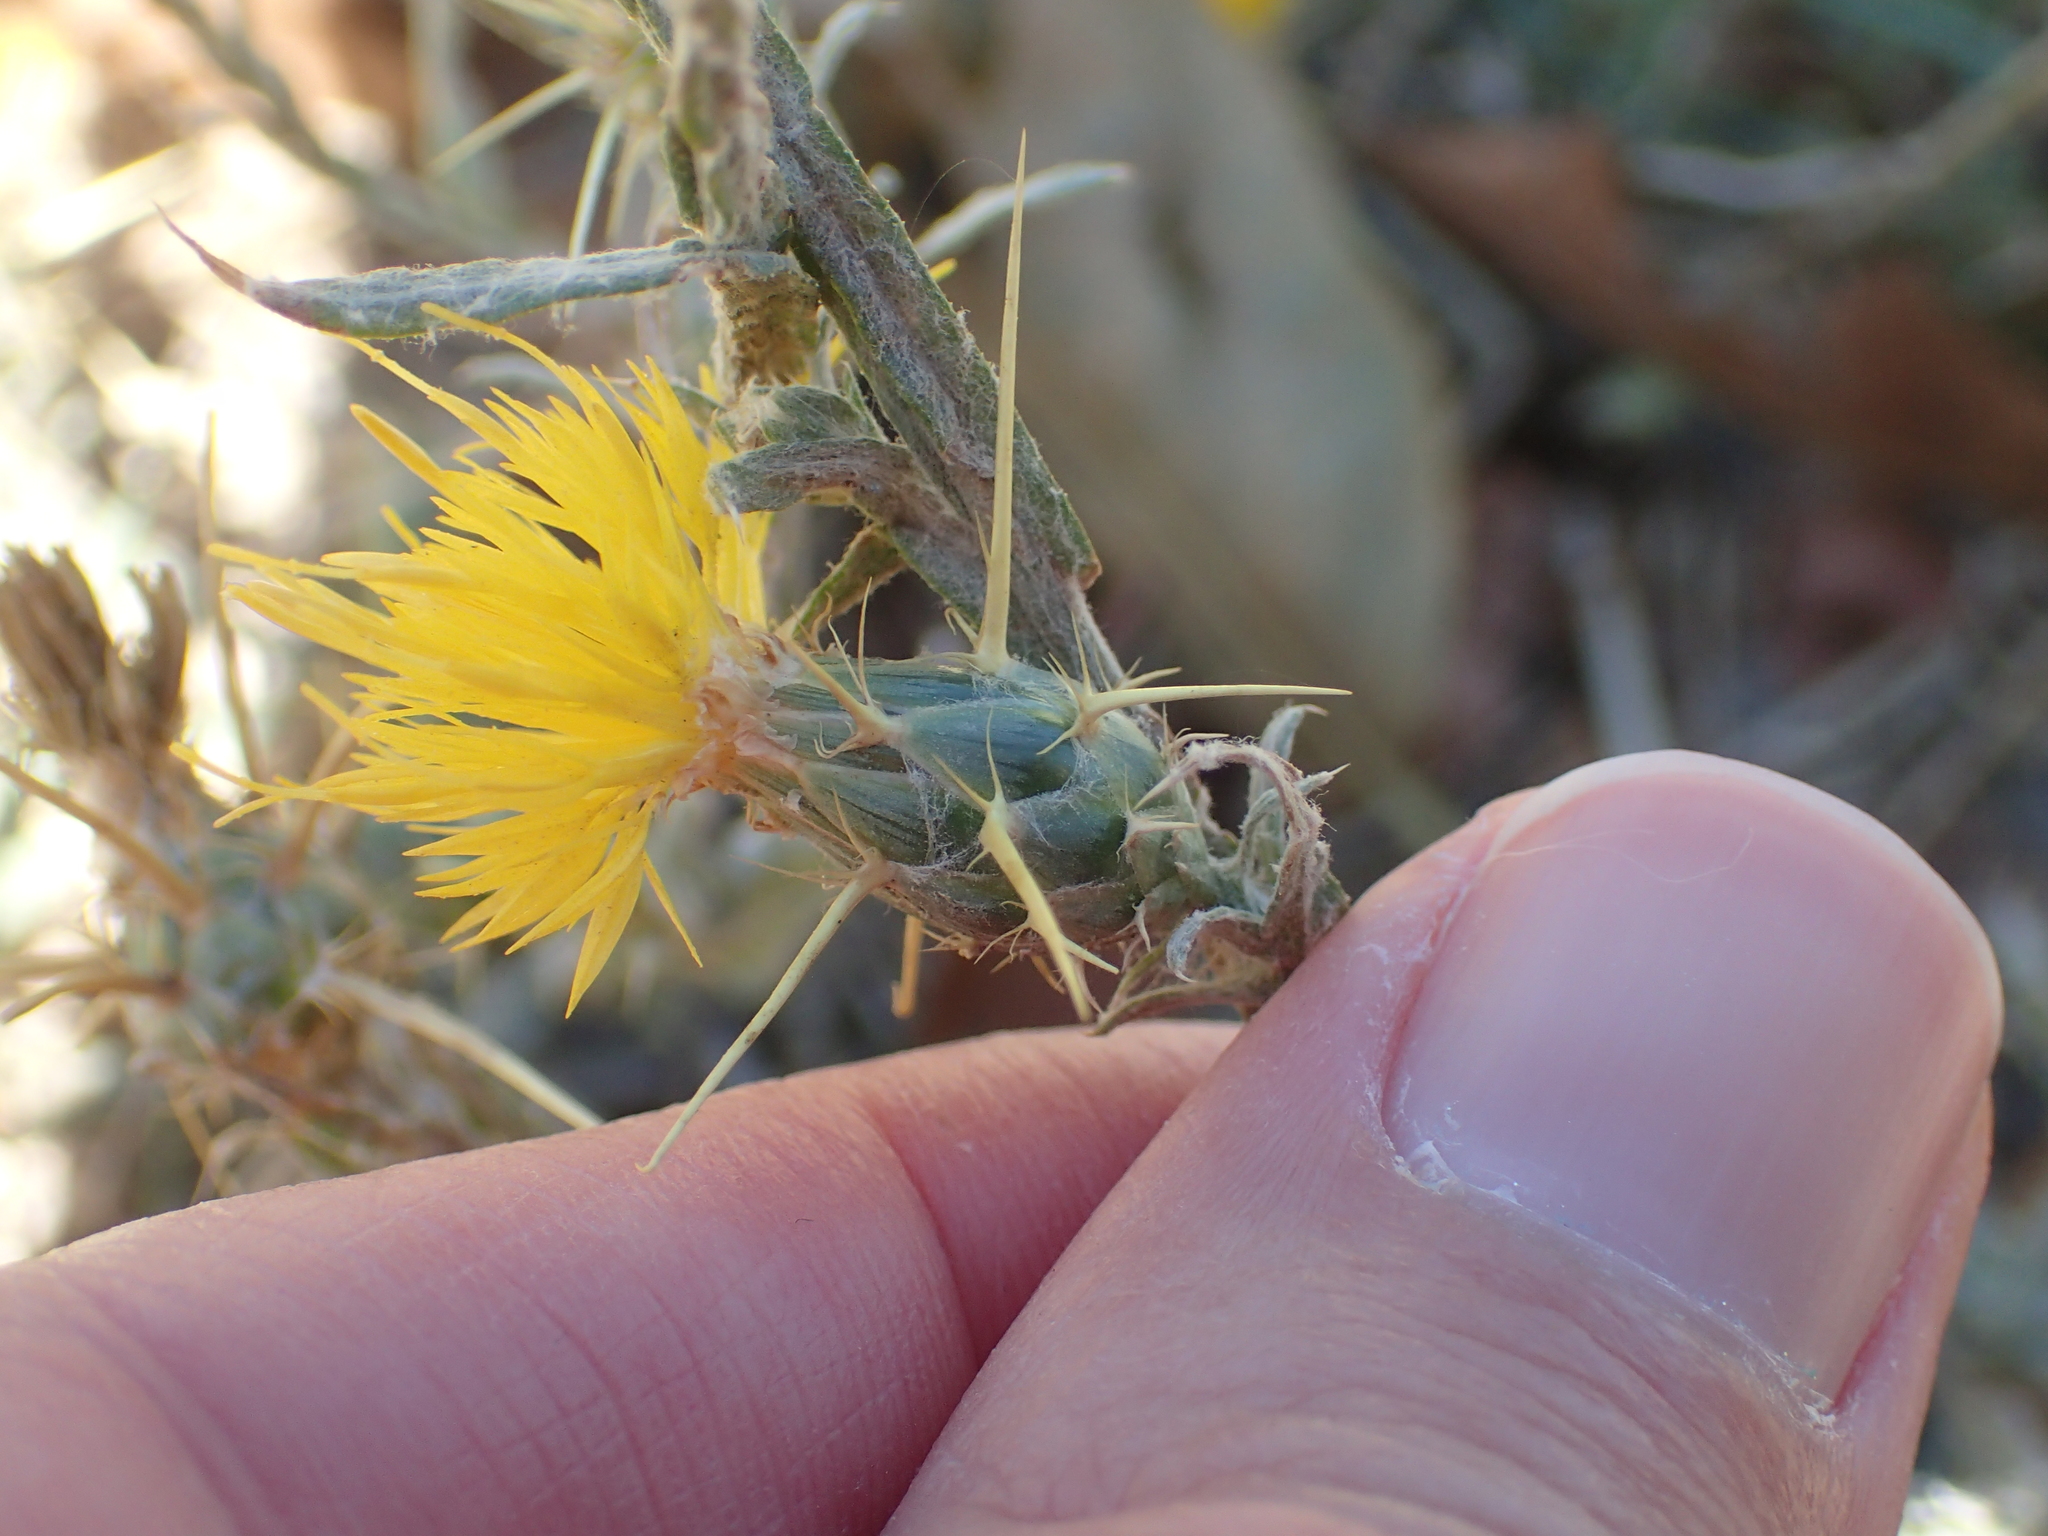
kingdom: Plantae
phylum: Tracheophyta
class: Magnoliopsida
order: Asterales
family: Asteraceae
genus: Centaurea
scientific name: Centaurea solstitialis
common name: Yellow star-thistle
